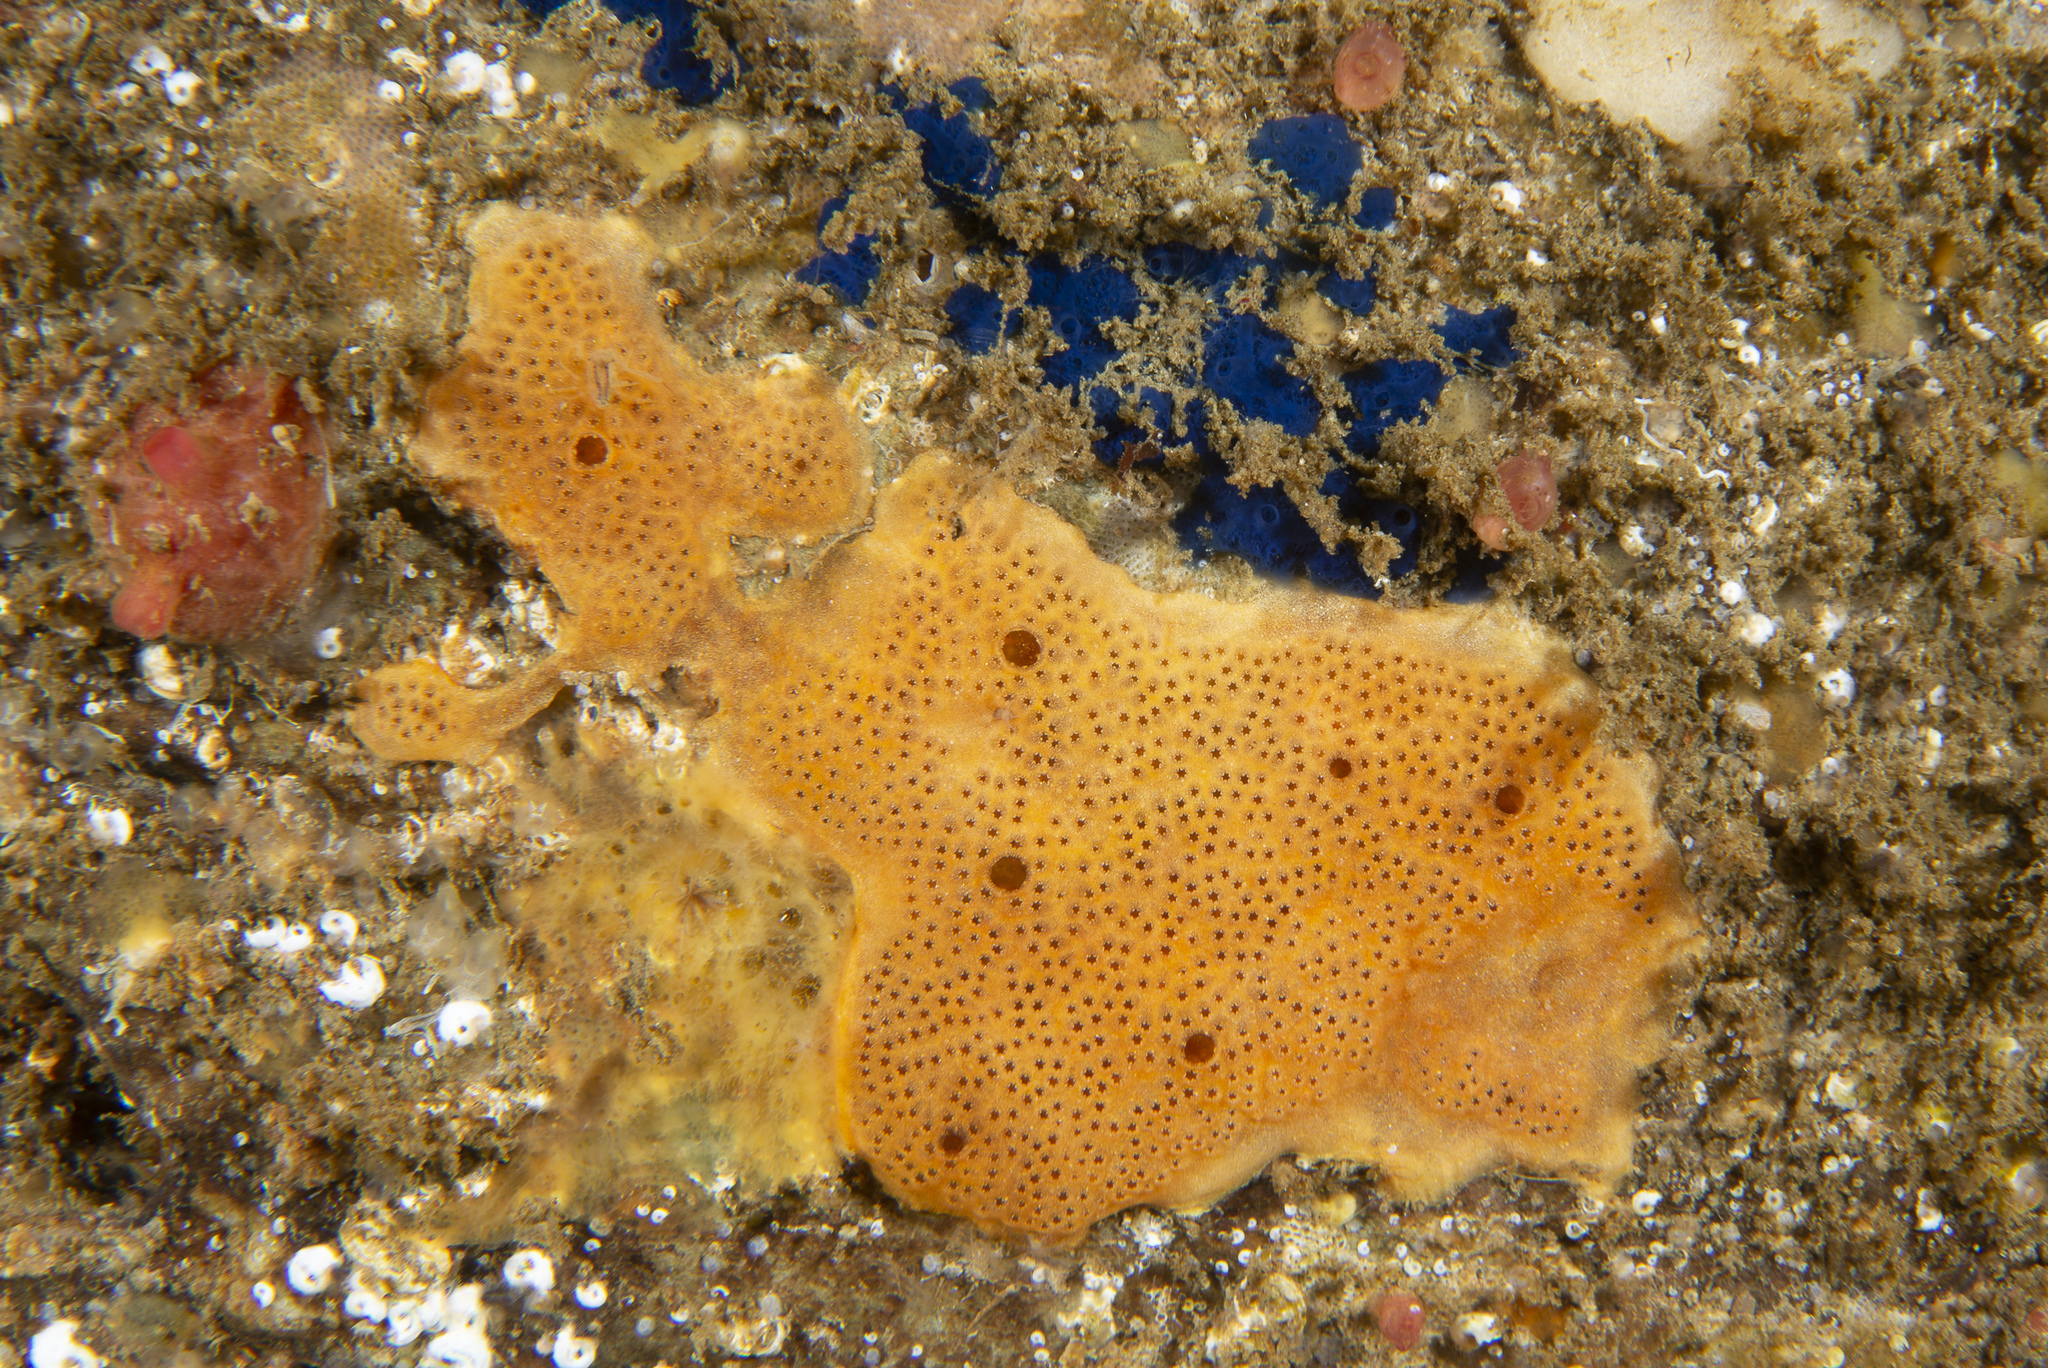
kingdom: Animalia
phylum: Chordata
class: Ascidiacea
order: Aplousobranchia
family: Didemnidae
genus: Polysyncraton
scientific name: Polysyncraton bilobatum
